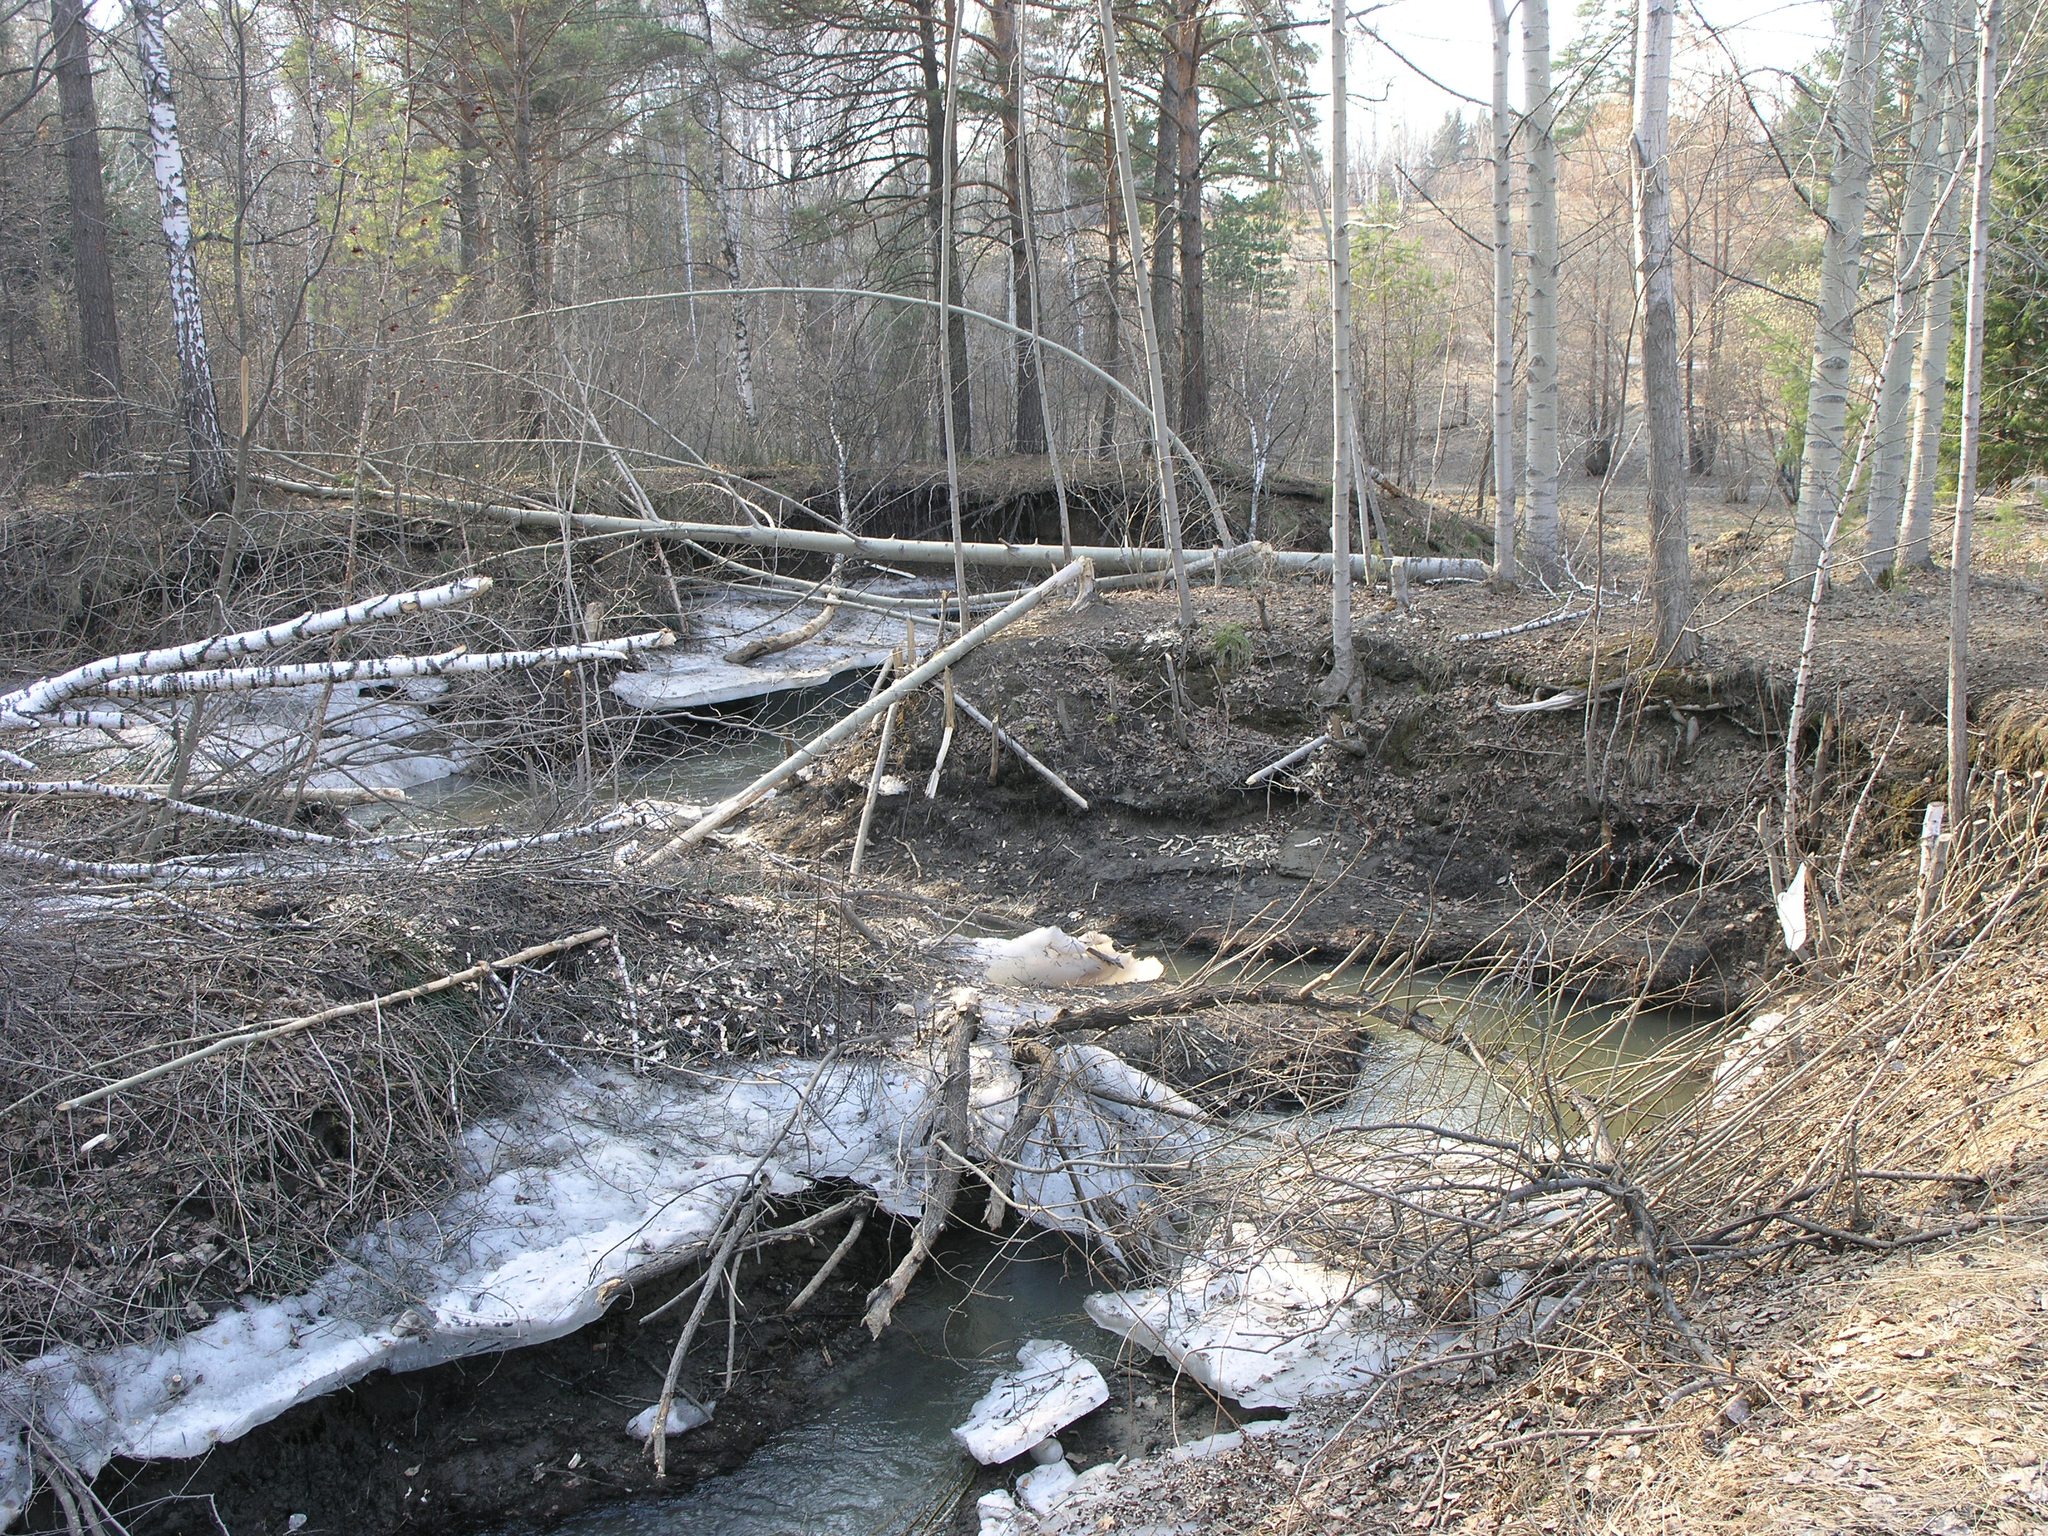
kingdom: Animalia
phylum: Chordata
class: Mammalia
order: Rodentia
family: Castoridae
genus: Castor
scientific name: Castor fiber
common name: Eurasian beaver
